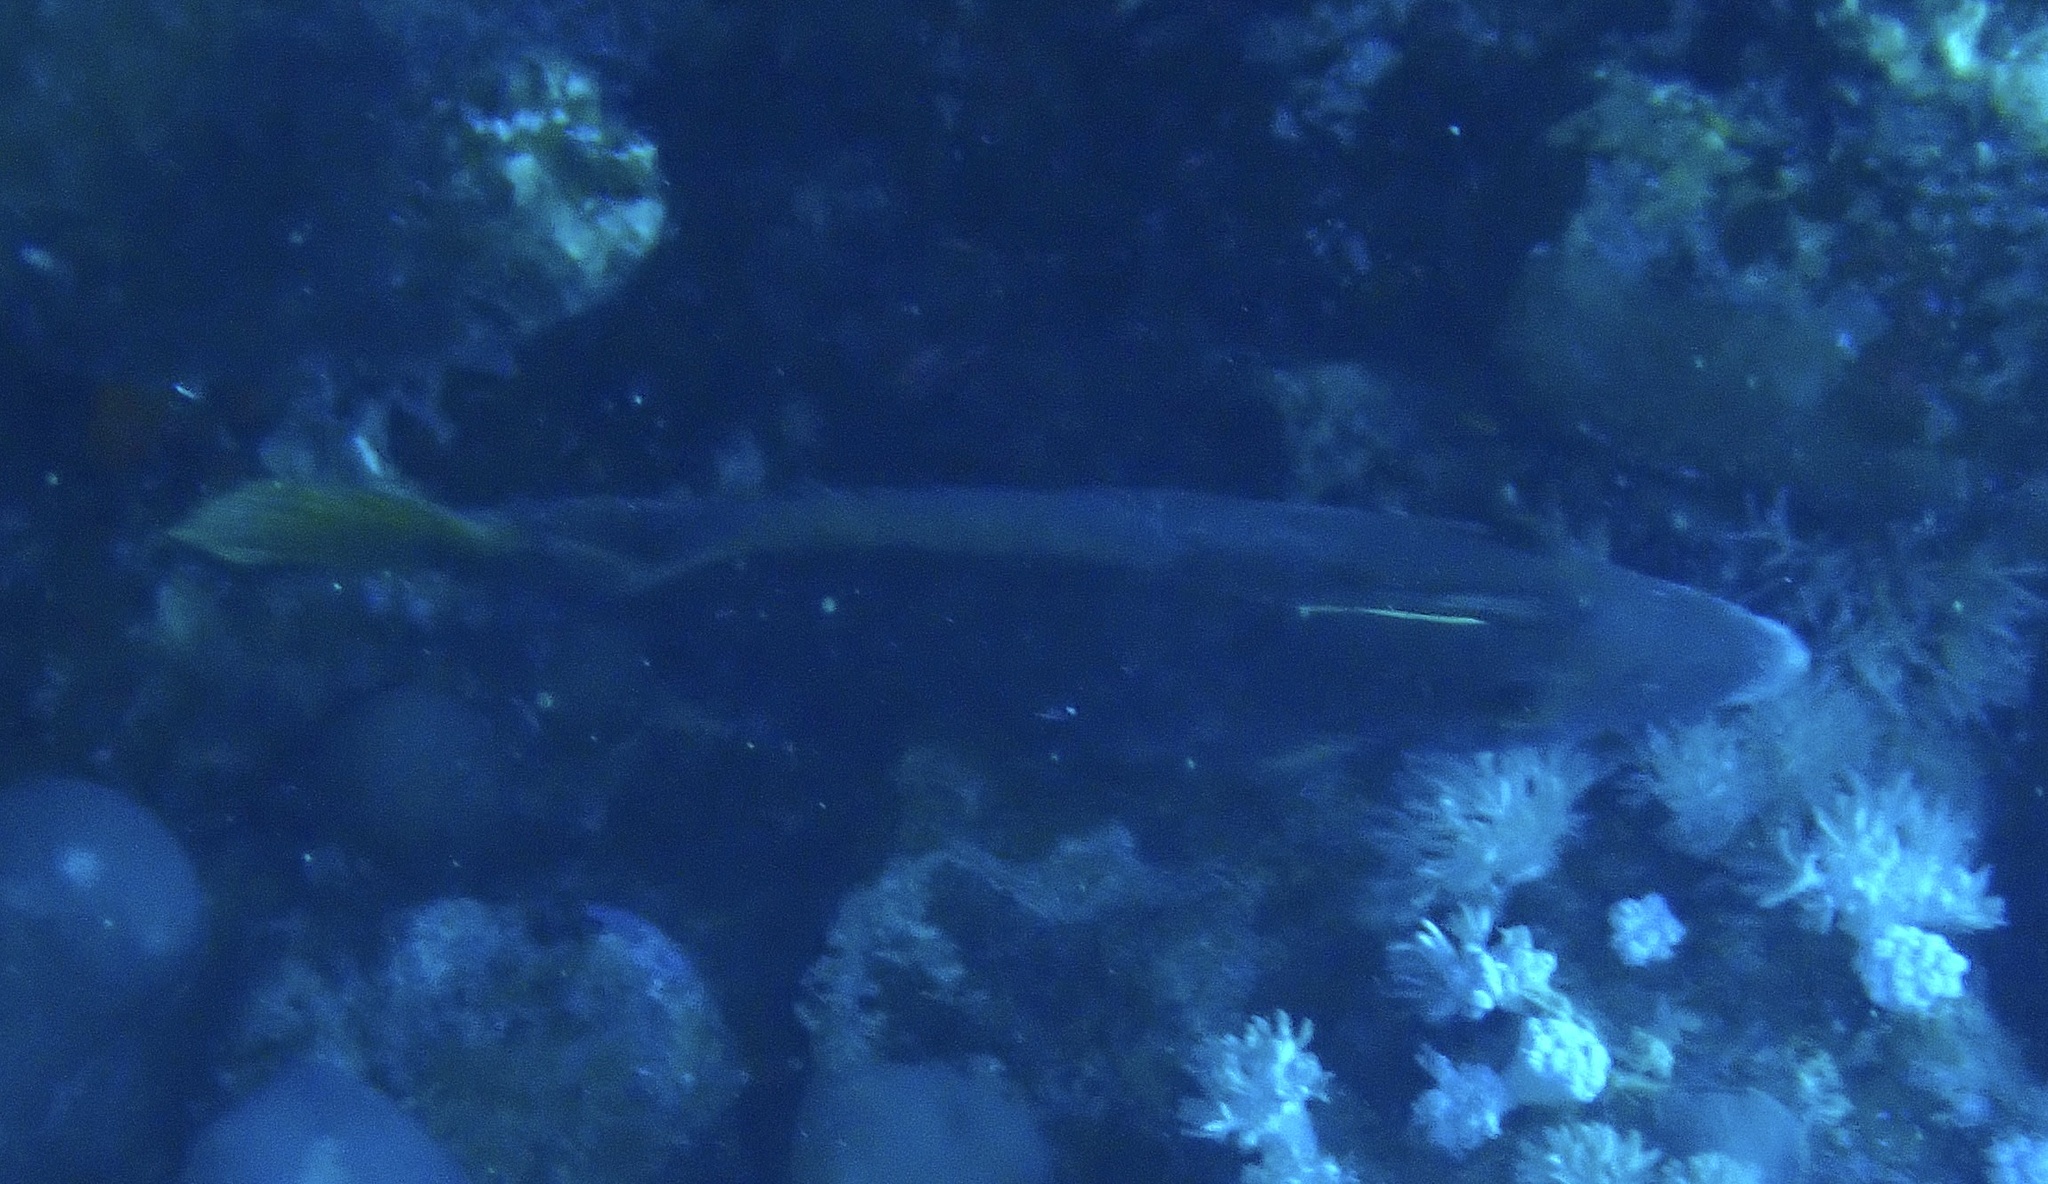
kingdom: Animalia
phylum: Chordata
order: Tetraodontiformes
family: Monacanthidae
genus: Cantherhines
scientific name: Cantherhines pardalis
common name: Honeycomb filefish
